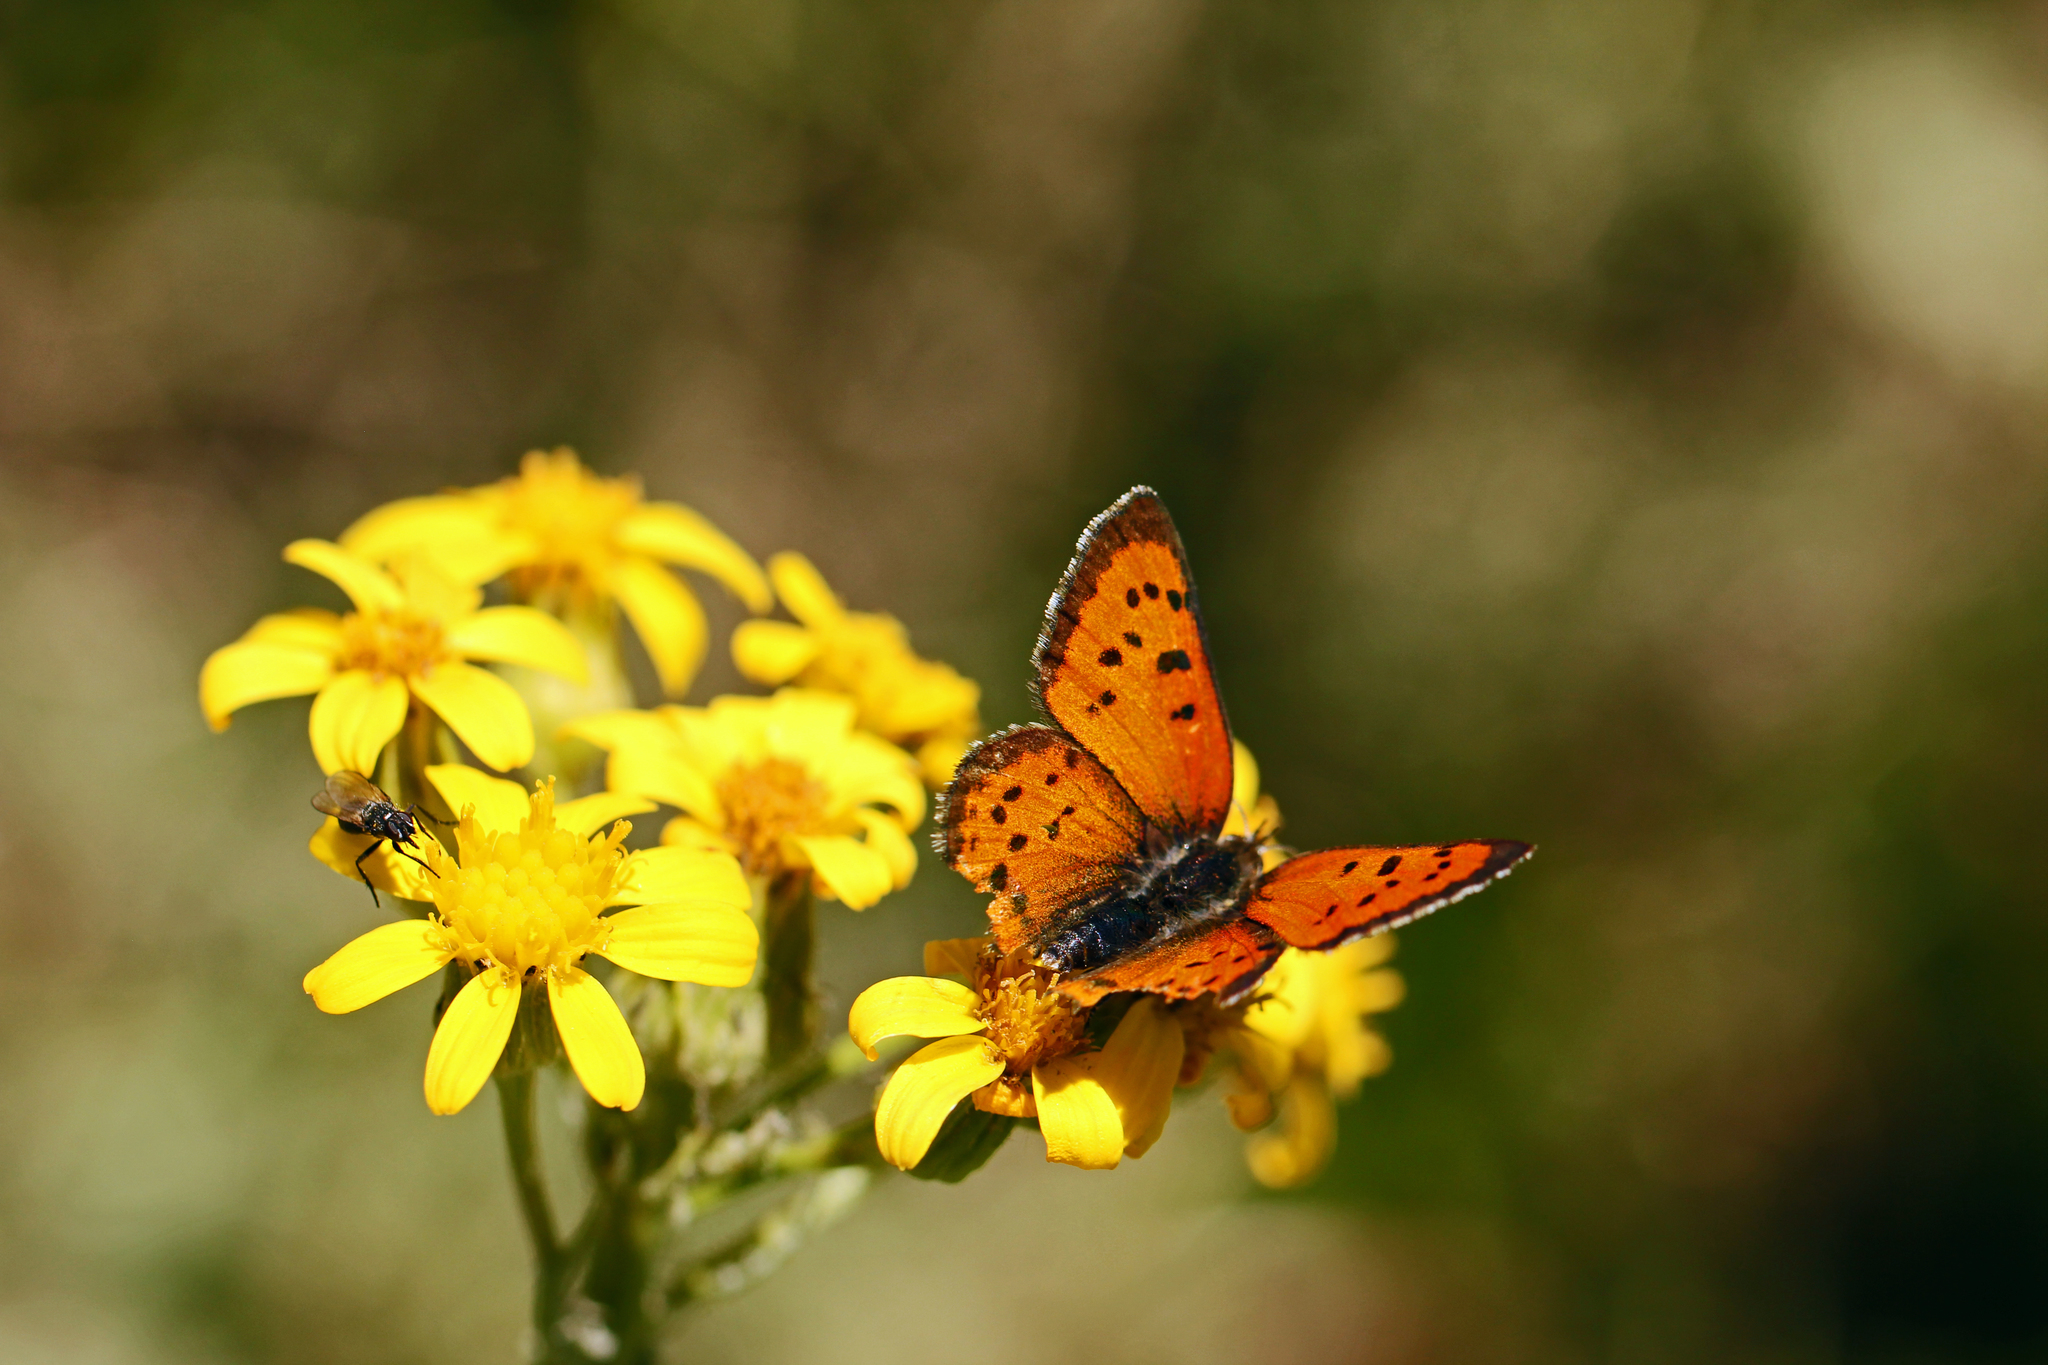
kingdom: Animalia
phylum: Arthropoda
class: Insecta
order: Lepidoptera
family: Lycaenidae
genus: Lycaena
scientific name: Lycaena cupreus
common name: Lustrous copper
